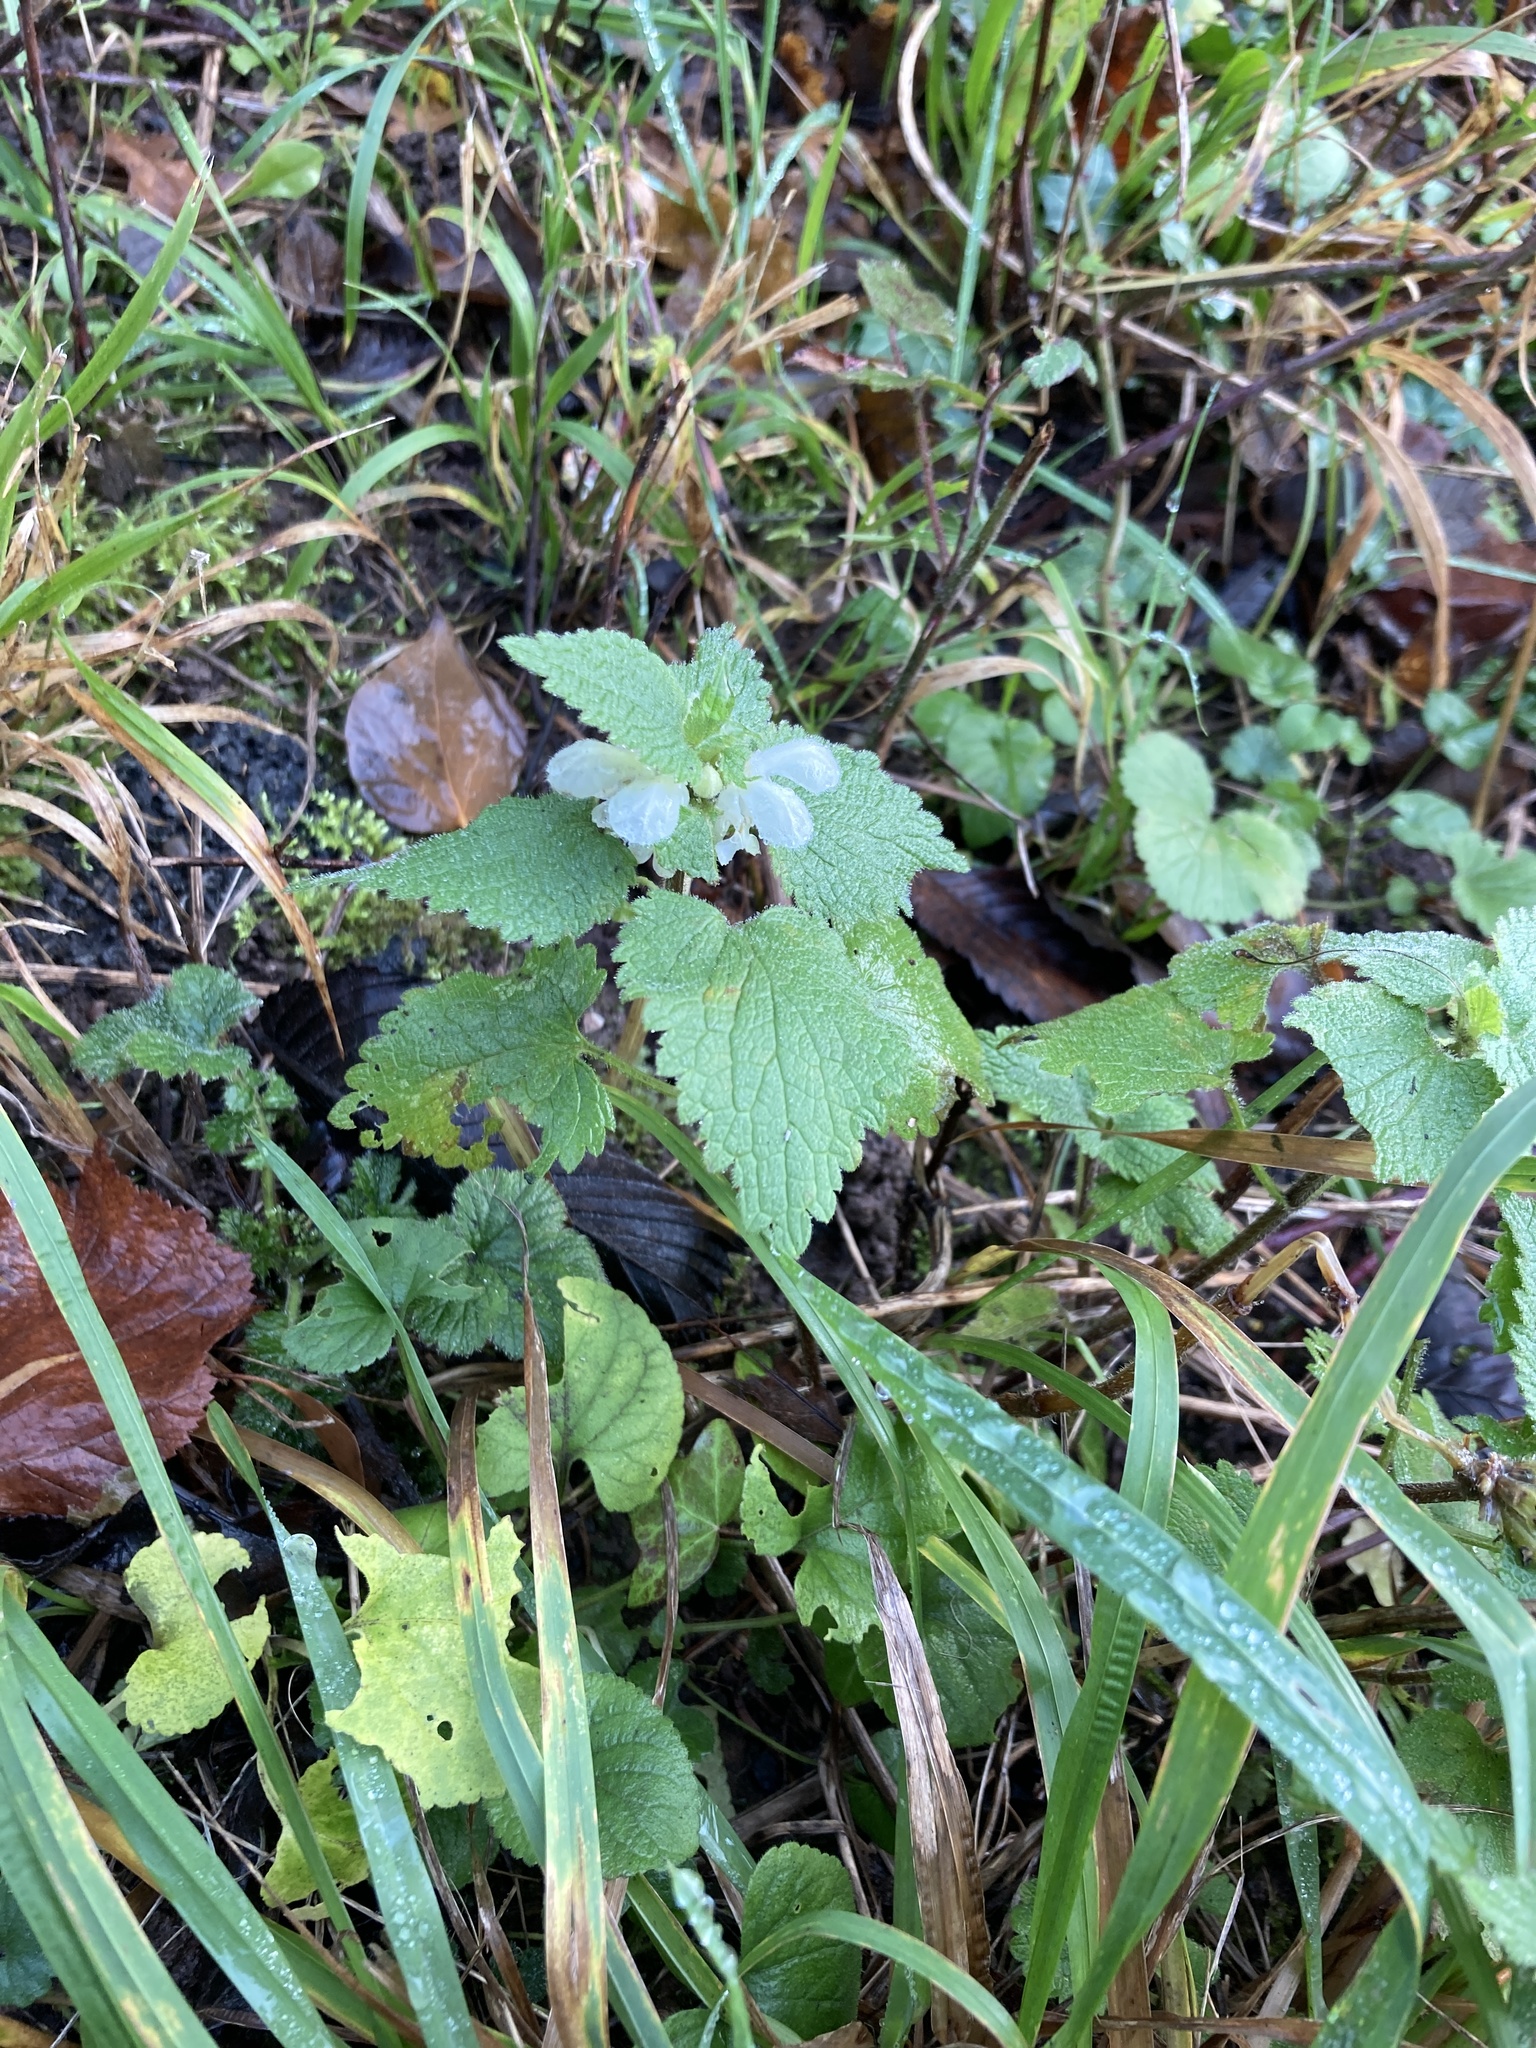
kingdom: Plantae
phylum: Tracheophyta
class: Magnoliopsida
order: Lamiales
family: Lamiaceae
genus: Lamium
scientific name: Lamium album
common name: White dead-nettle
